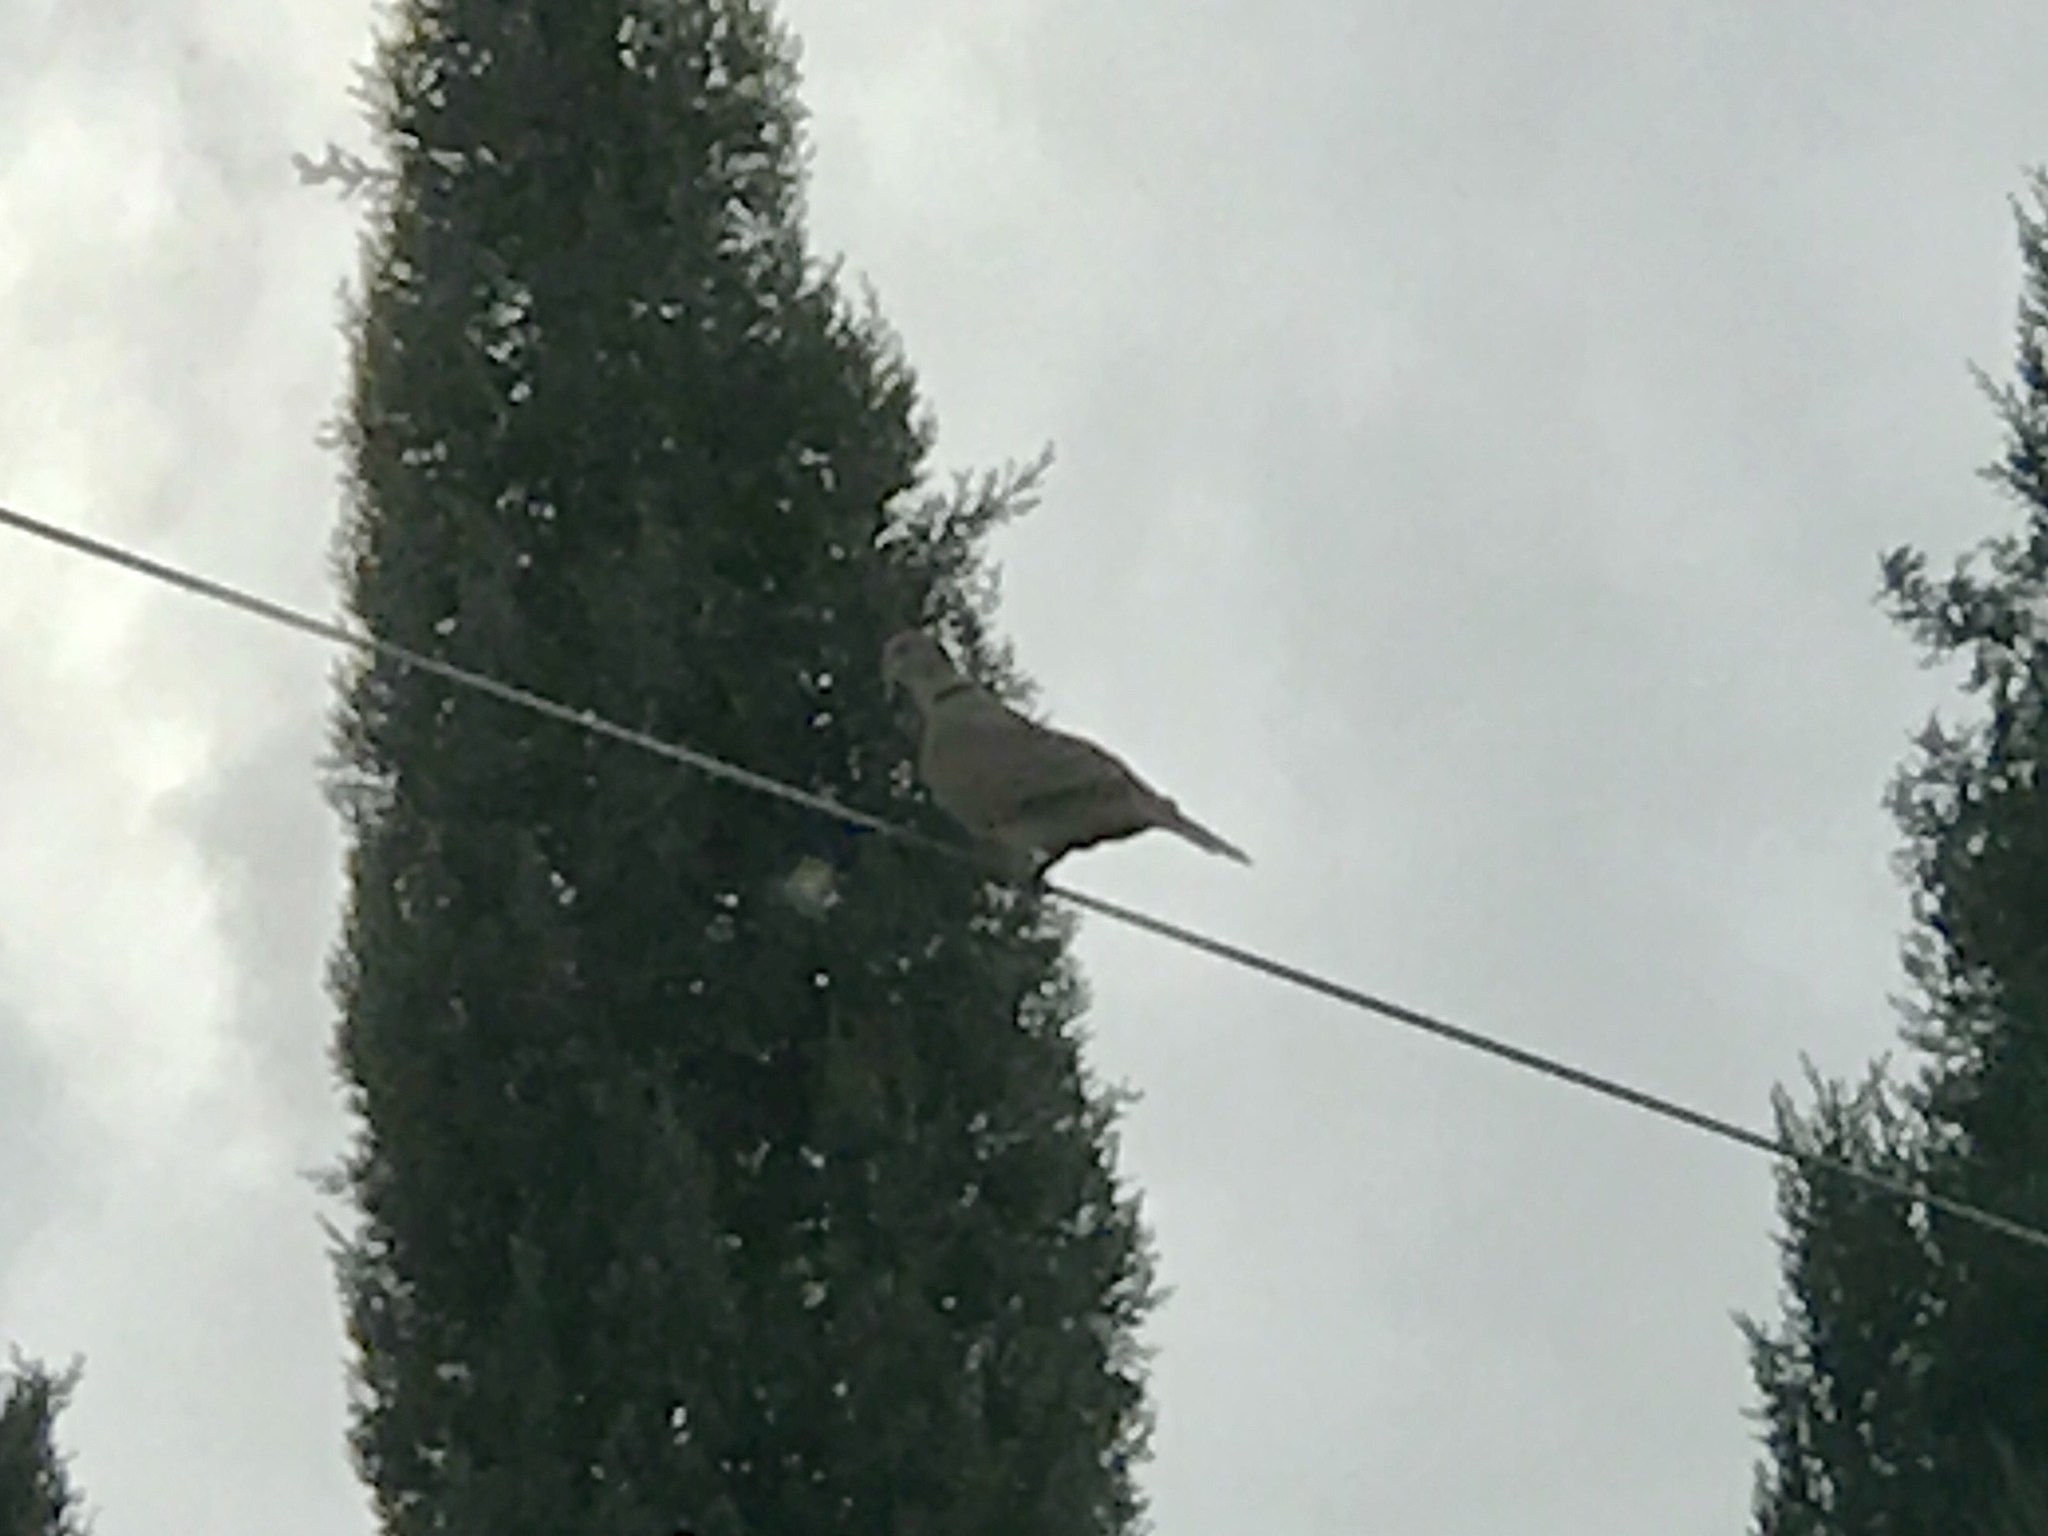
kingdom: Animalia
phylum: Chordata
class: Aves
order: Columbiformes
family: Columbidae
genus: Streptopelia
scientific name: Streptopelia decaocto
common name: Eurasian collared dove
